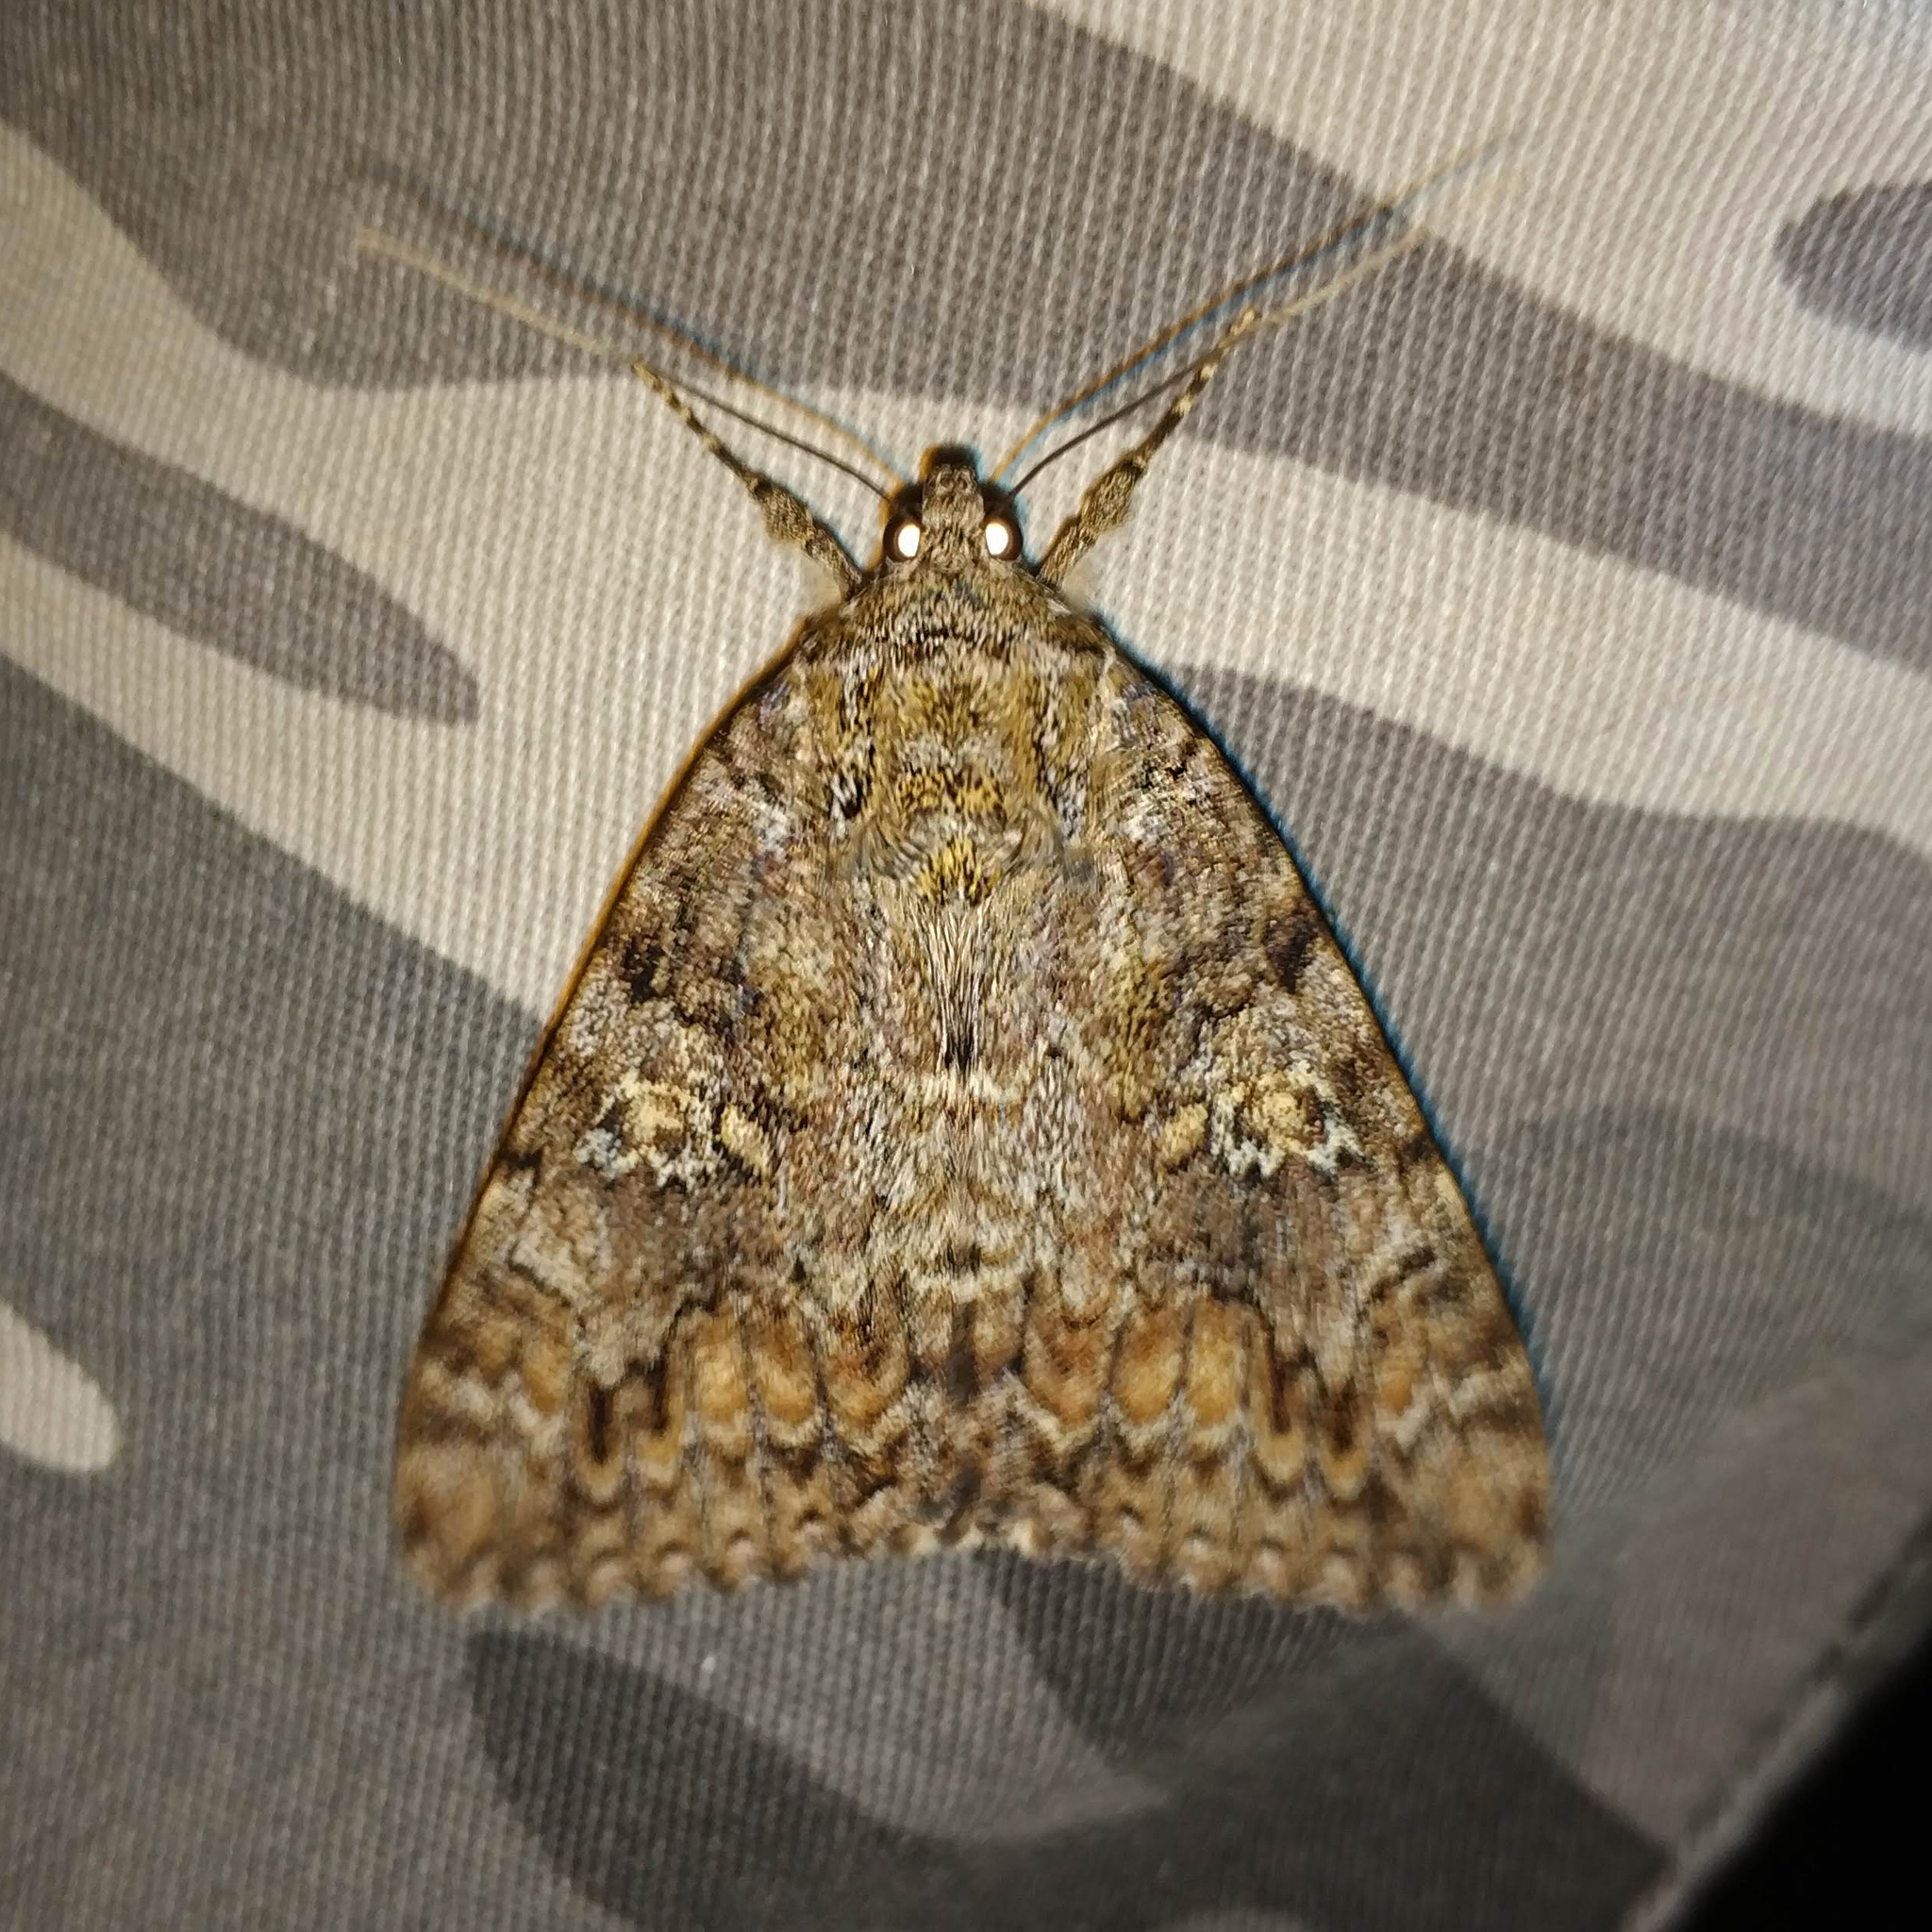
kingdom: Animalia
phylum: Arthropoda
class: Insecta
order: Lepidoptera
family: Erebidae
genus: Catocala
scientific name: Catocala sponsa
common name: Dark crimson underwing
